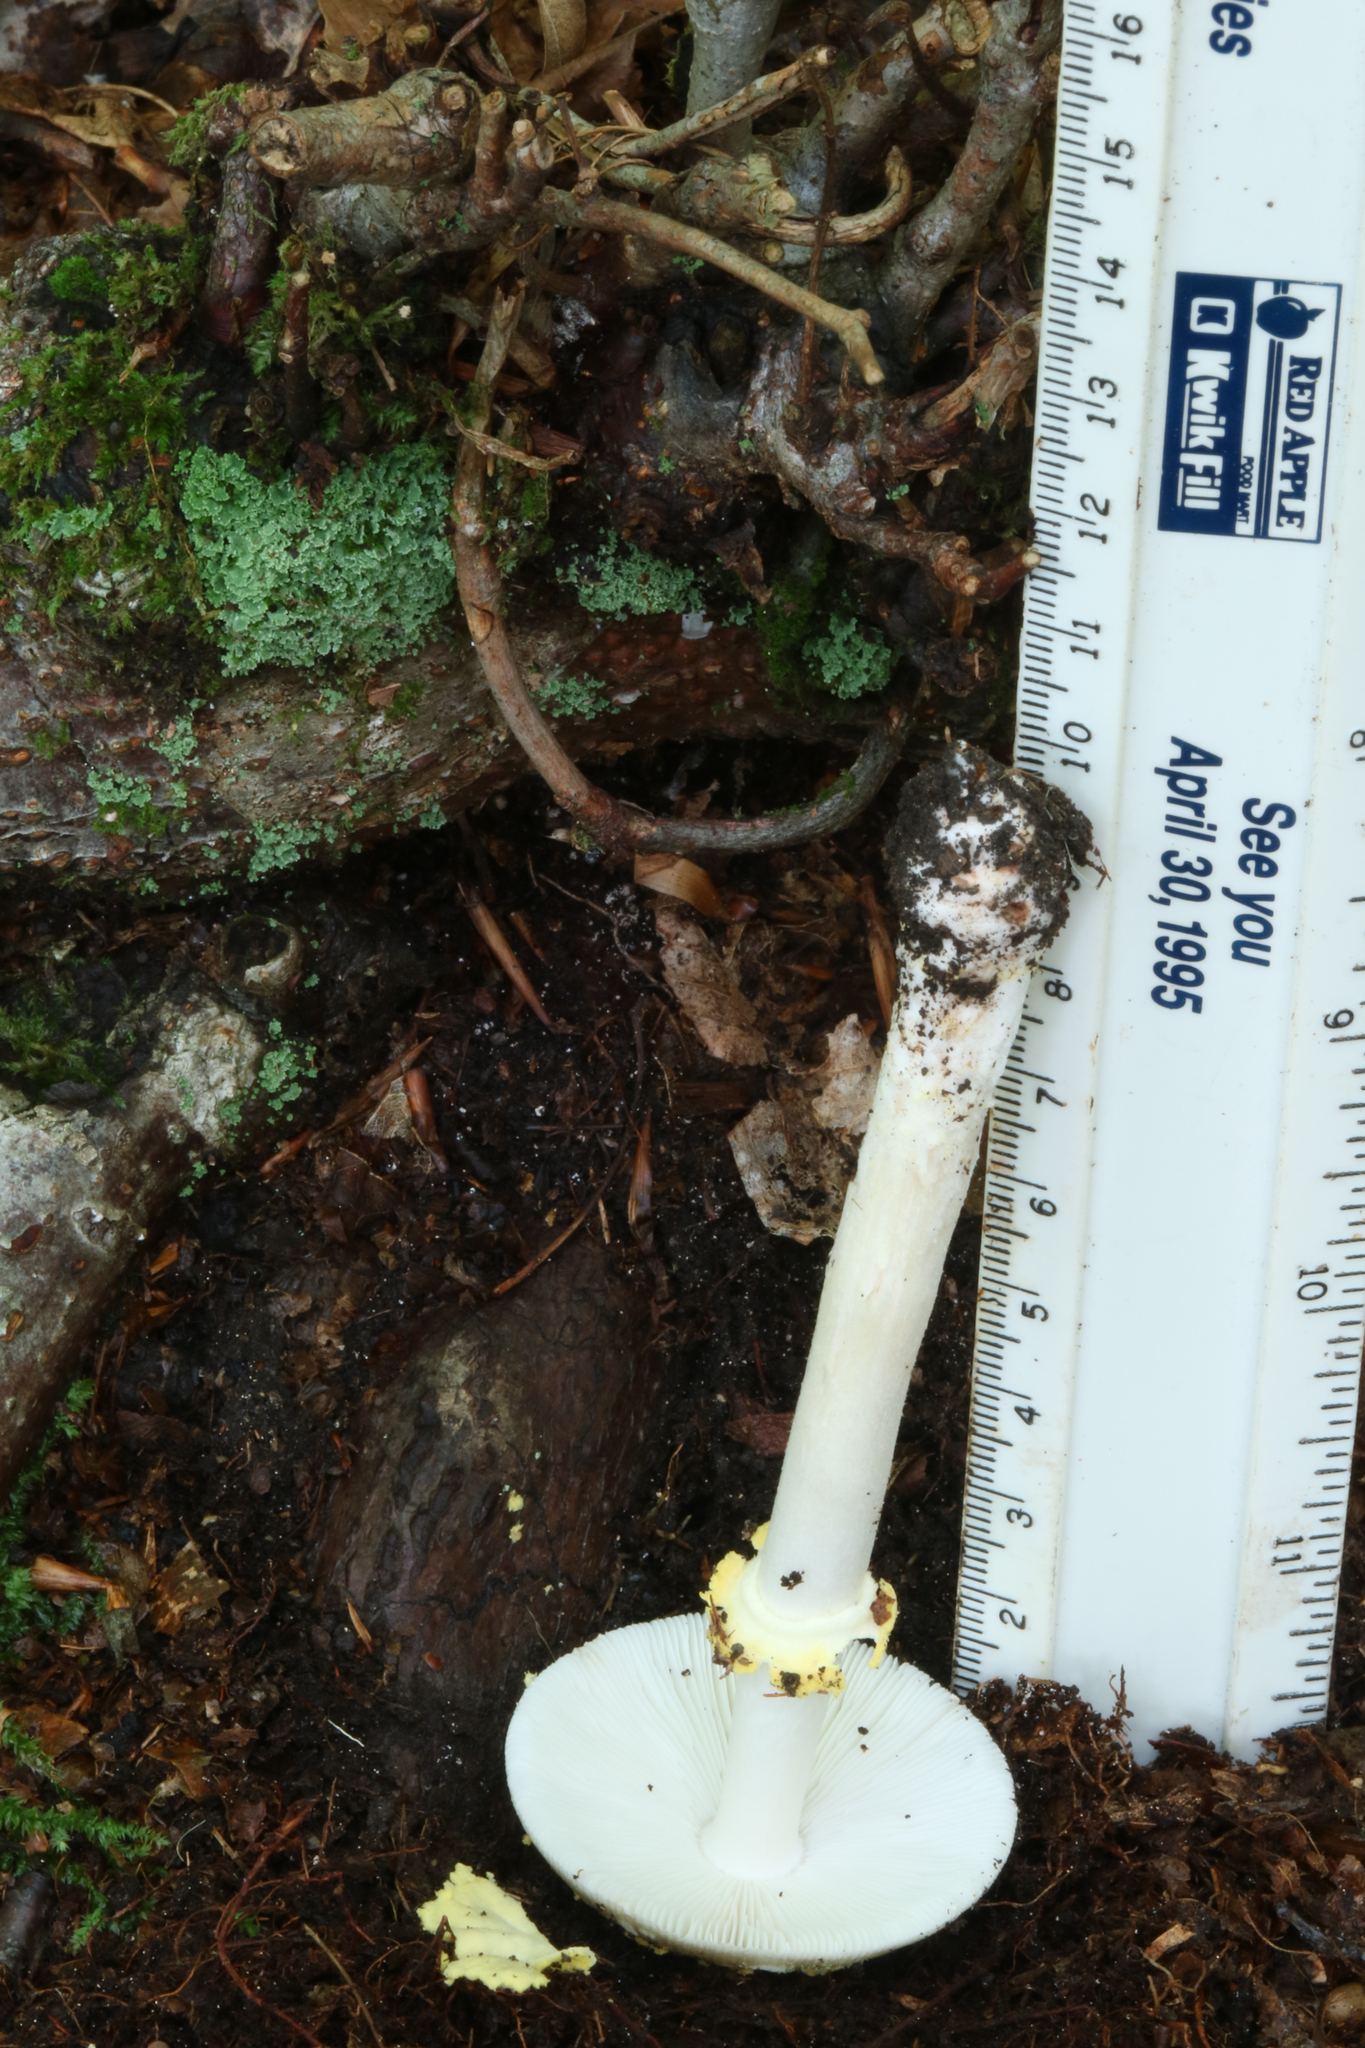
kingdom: Fungi
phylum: Basidiomycota
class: Agaricomycetes
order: Agaricales
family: Amanitaceae
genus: Amanita
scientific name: Amanita flavorubens
